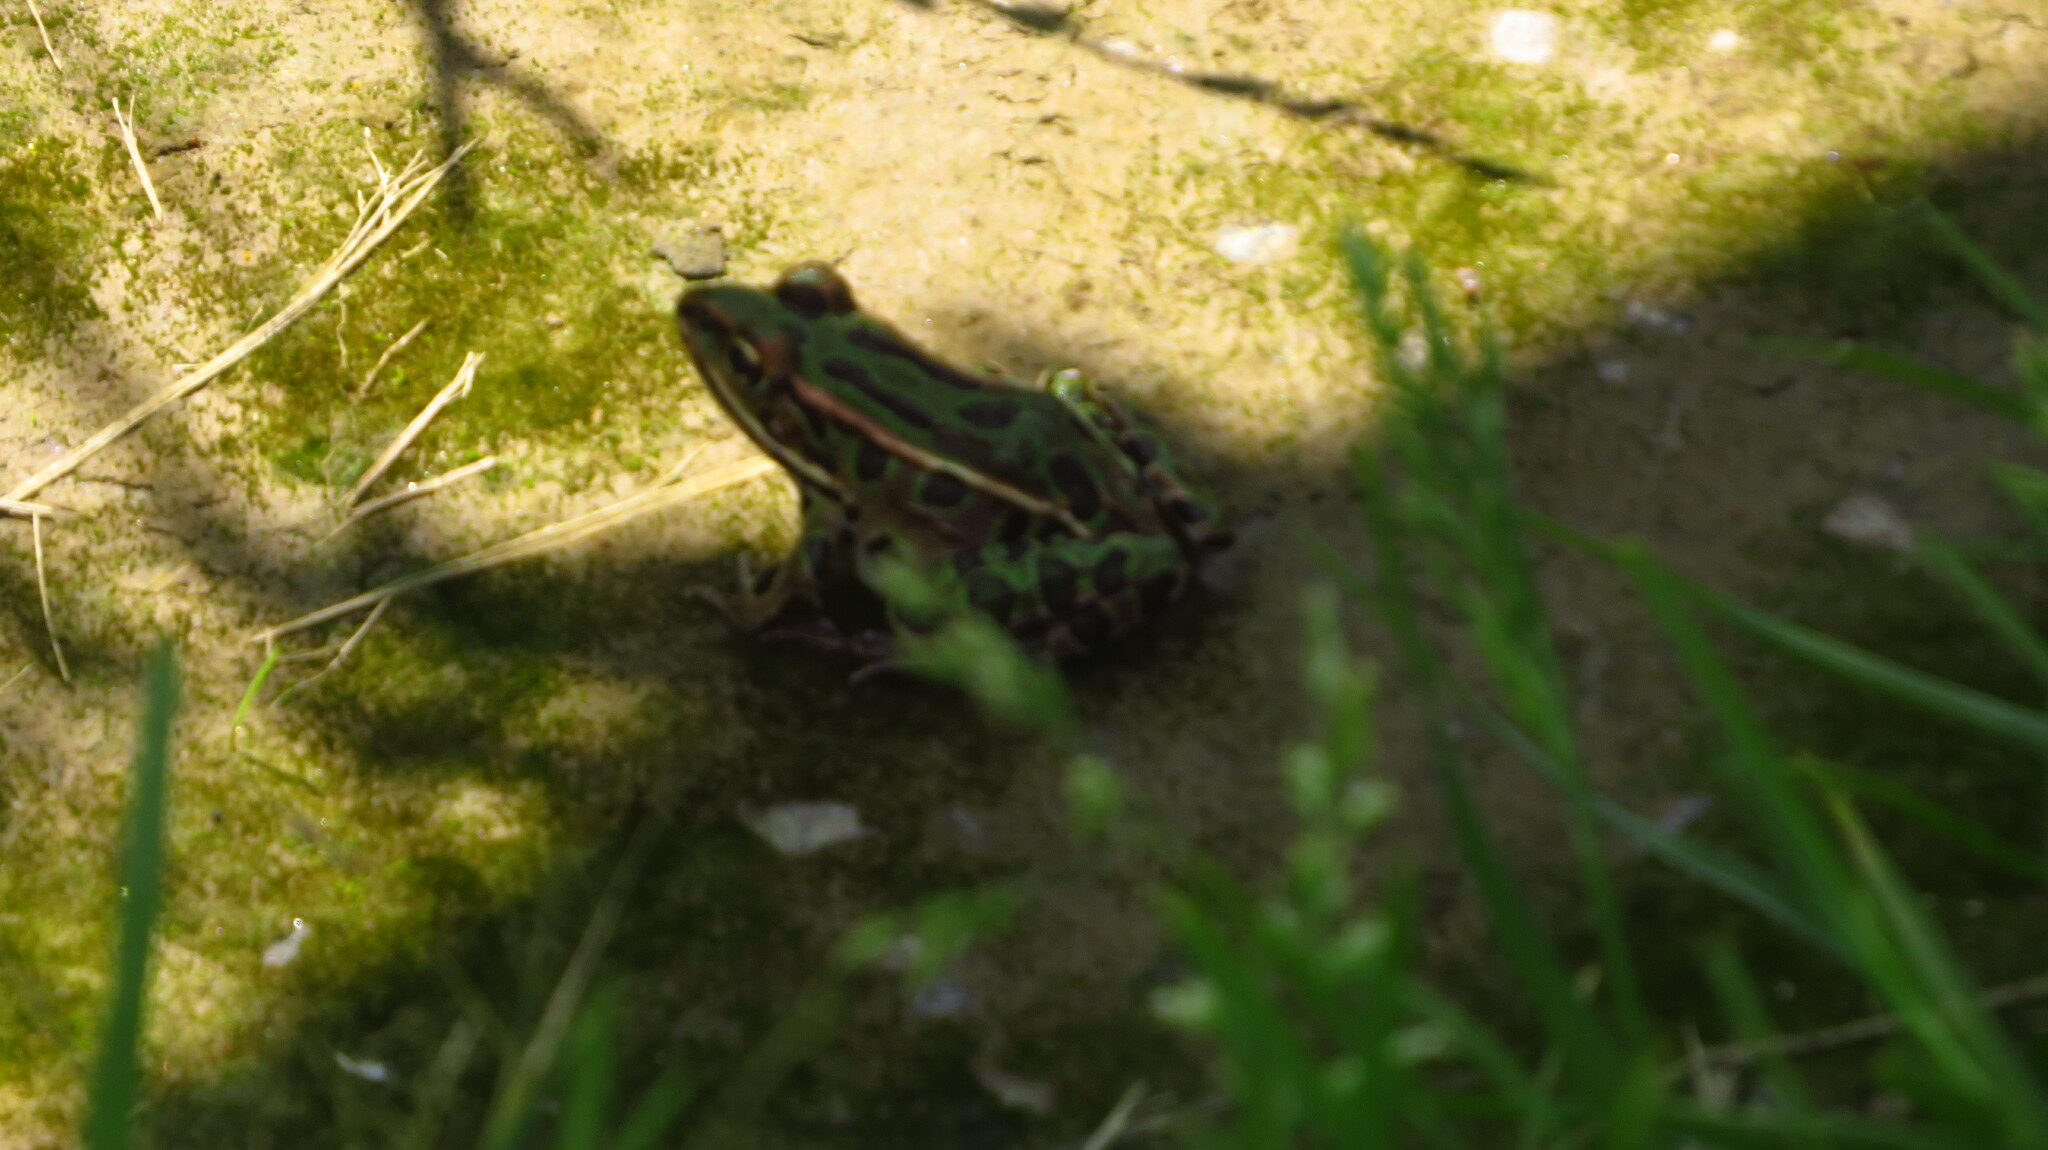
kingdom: Animalia
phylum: Chordata
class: Amphibia
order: Anura
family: Ranidae
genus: Lithobates
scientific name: Lithobates pipiens
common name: Northern leopard frog
